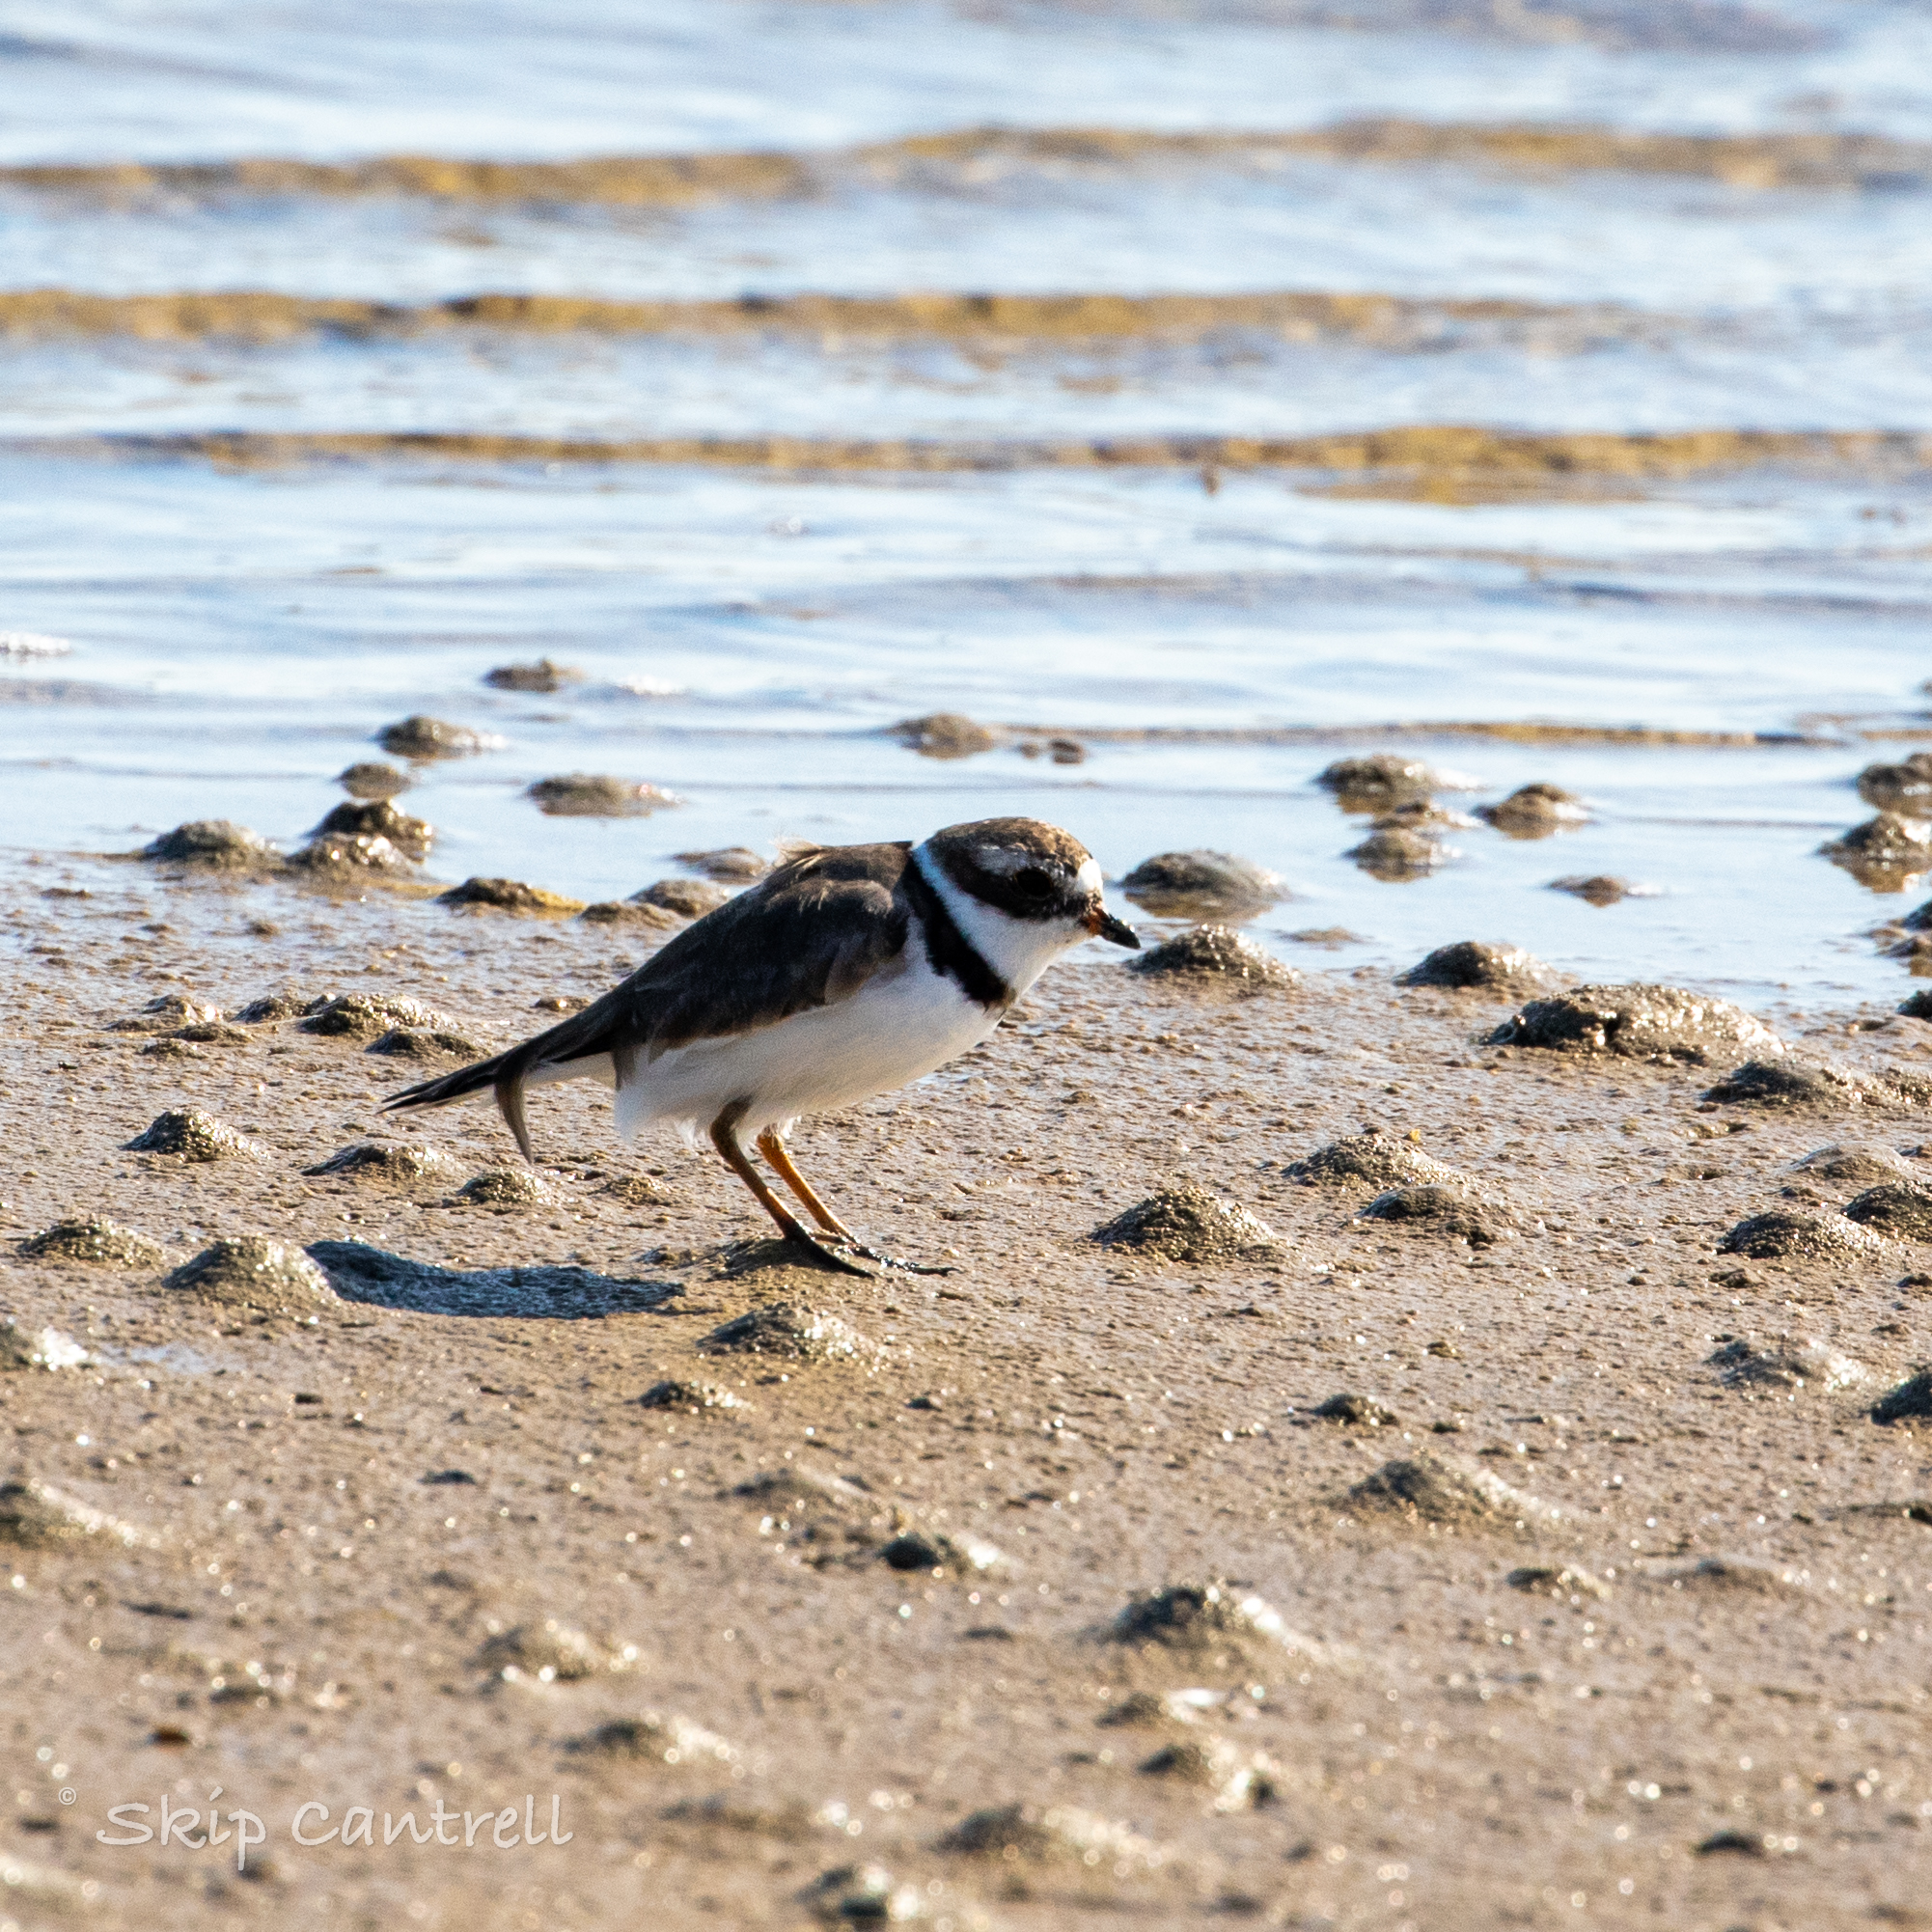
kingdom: Animalia
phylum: Chordata
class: Aves
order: Charadriiformes
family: Charadriidae
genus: Charadrius
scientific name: Charadrius semipalmatus
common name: Semipalmated plover
